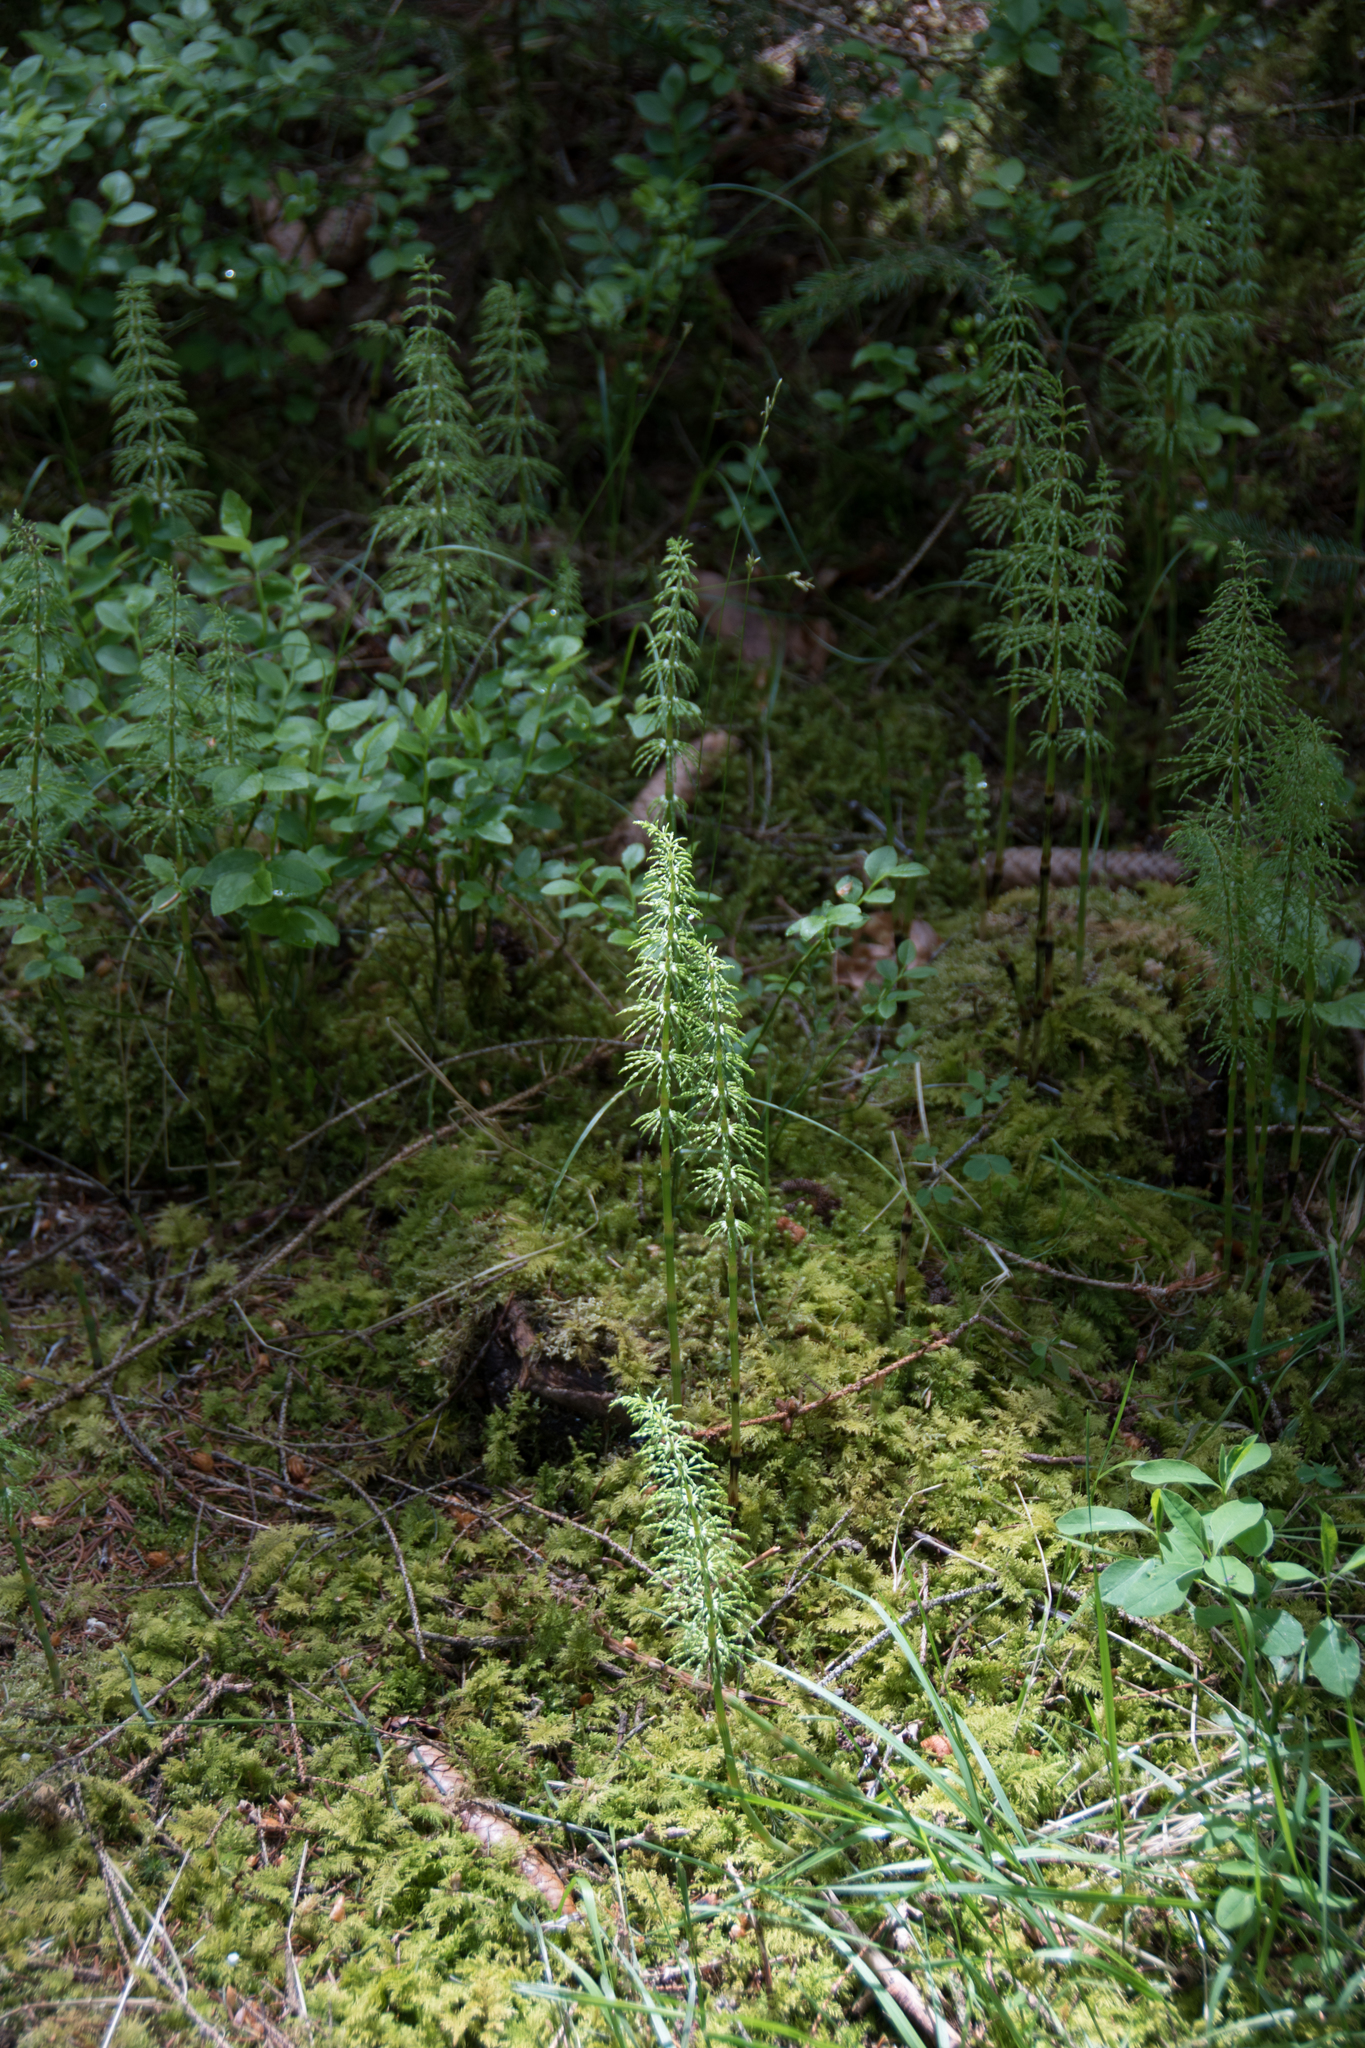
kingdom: Plantae
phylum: Tracheophyta
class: Polypodiopsida
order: Equisetales
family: Equisetaceae
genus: Equisetum
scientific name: Equisetum sylvaticum
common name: Wood horsetail
